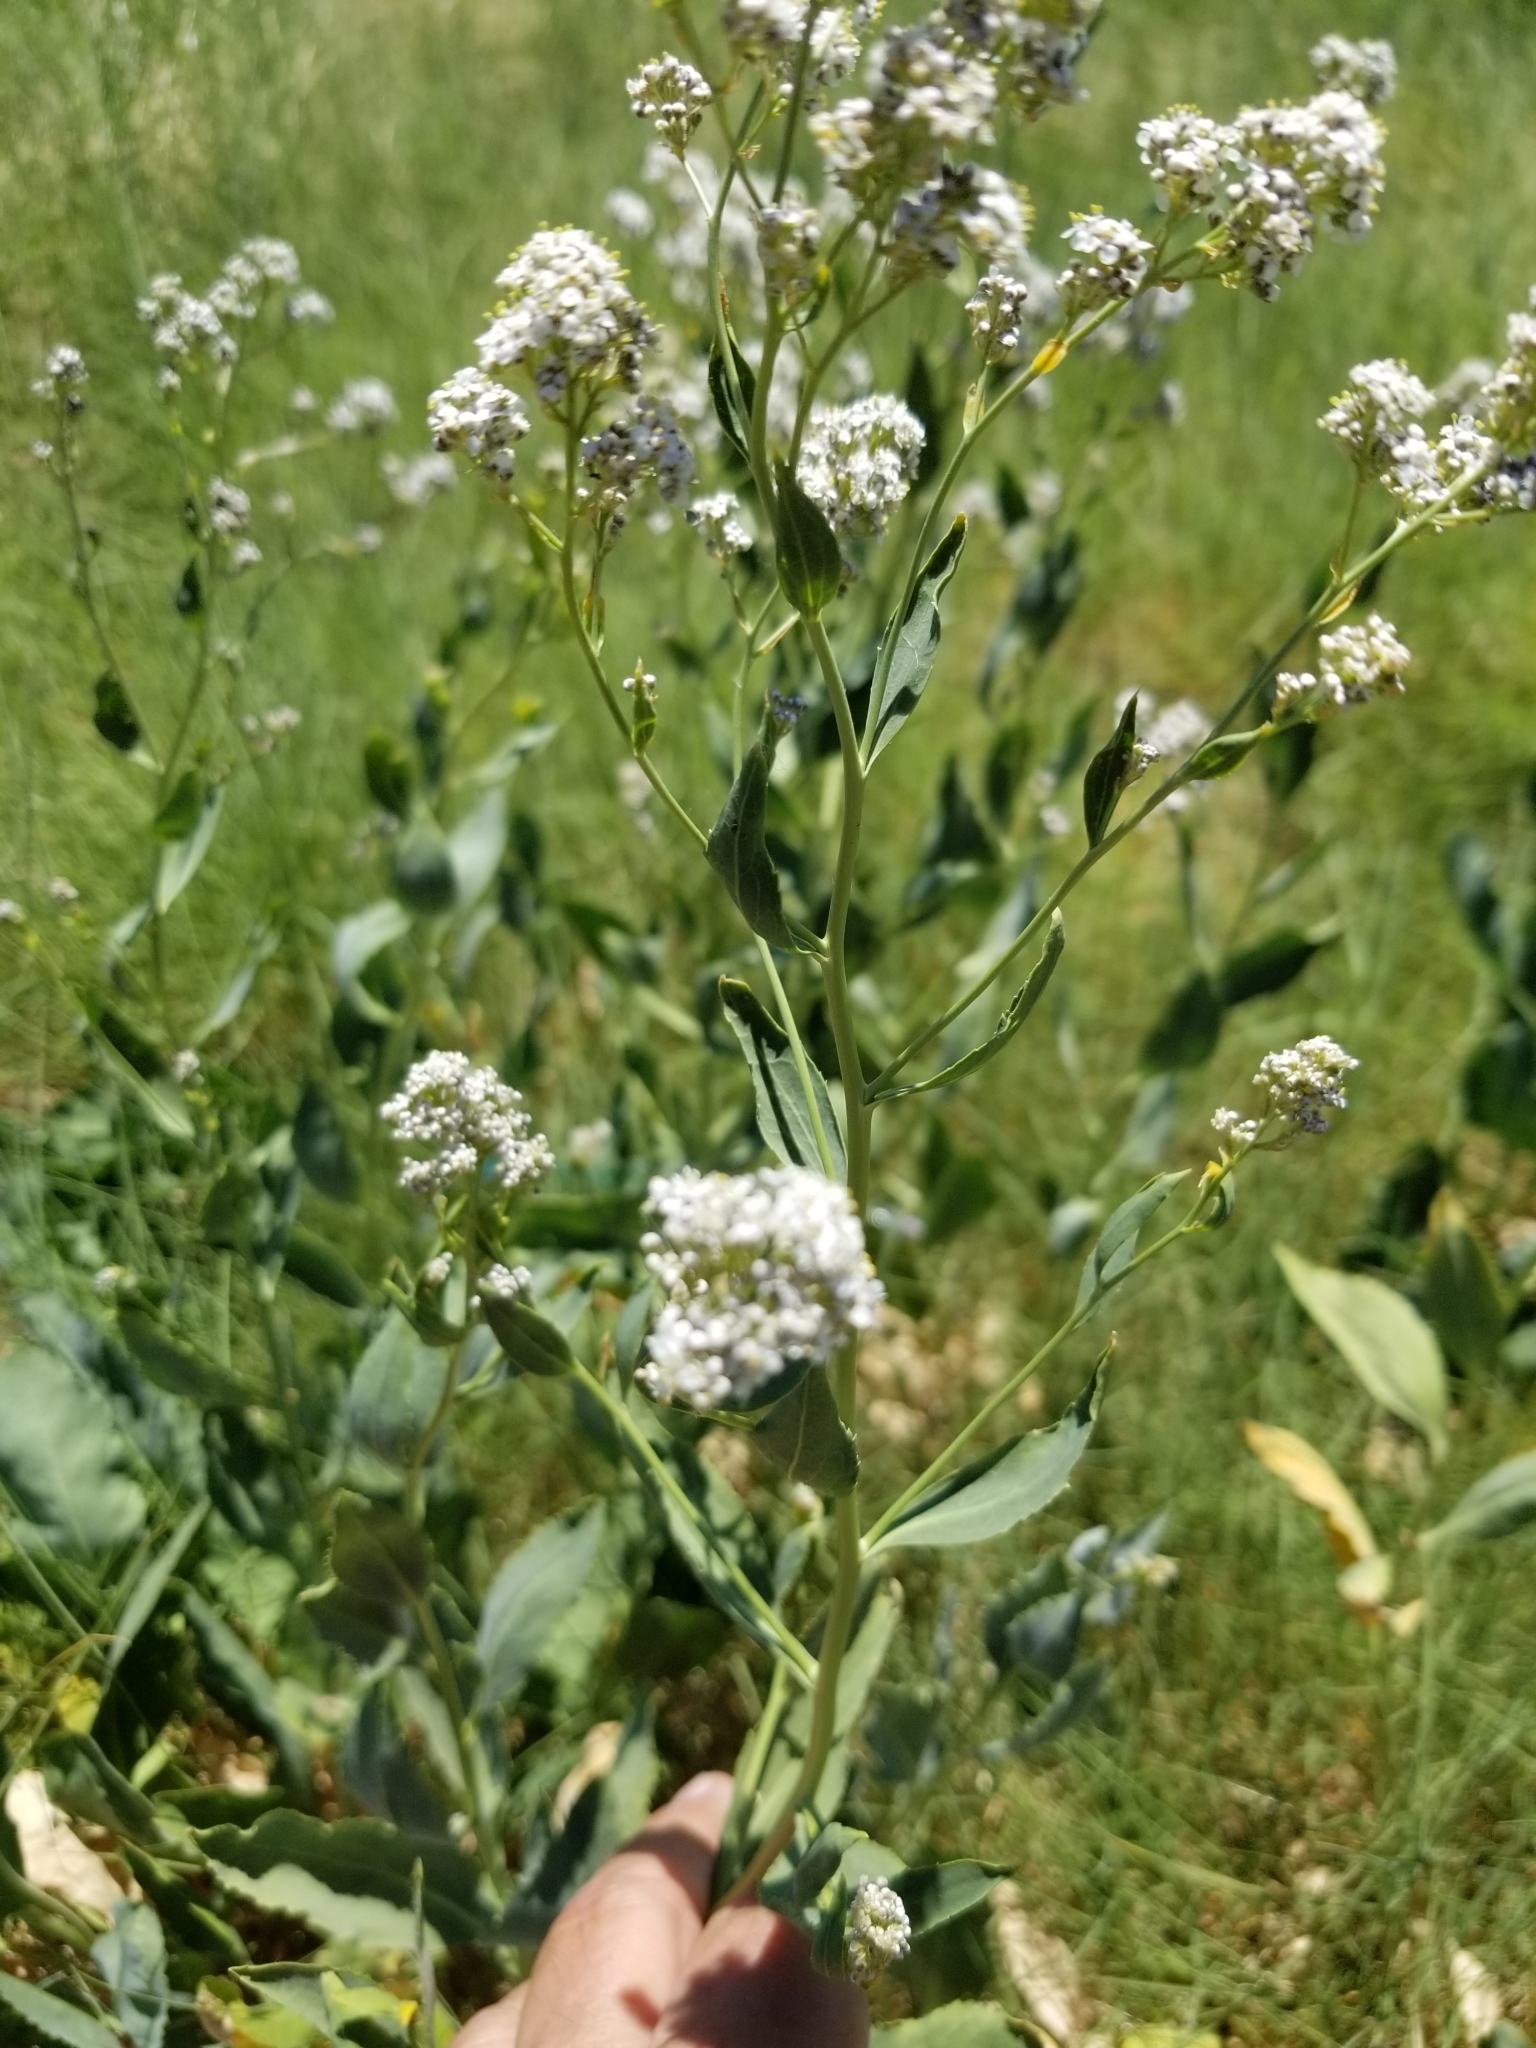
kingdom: Plantae
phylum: Tracheophyta
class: Magnoliopsida
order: Brassicales
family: Brassicaceae
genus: Lepidium
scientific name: Lepidium latifolium
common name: Dittander
